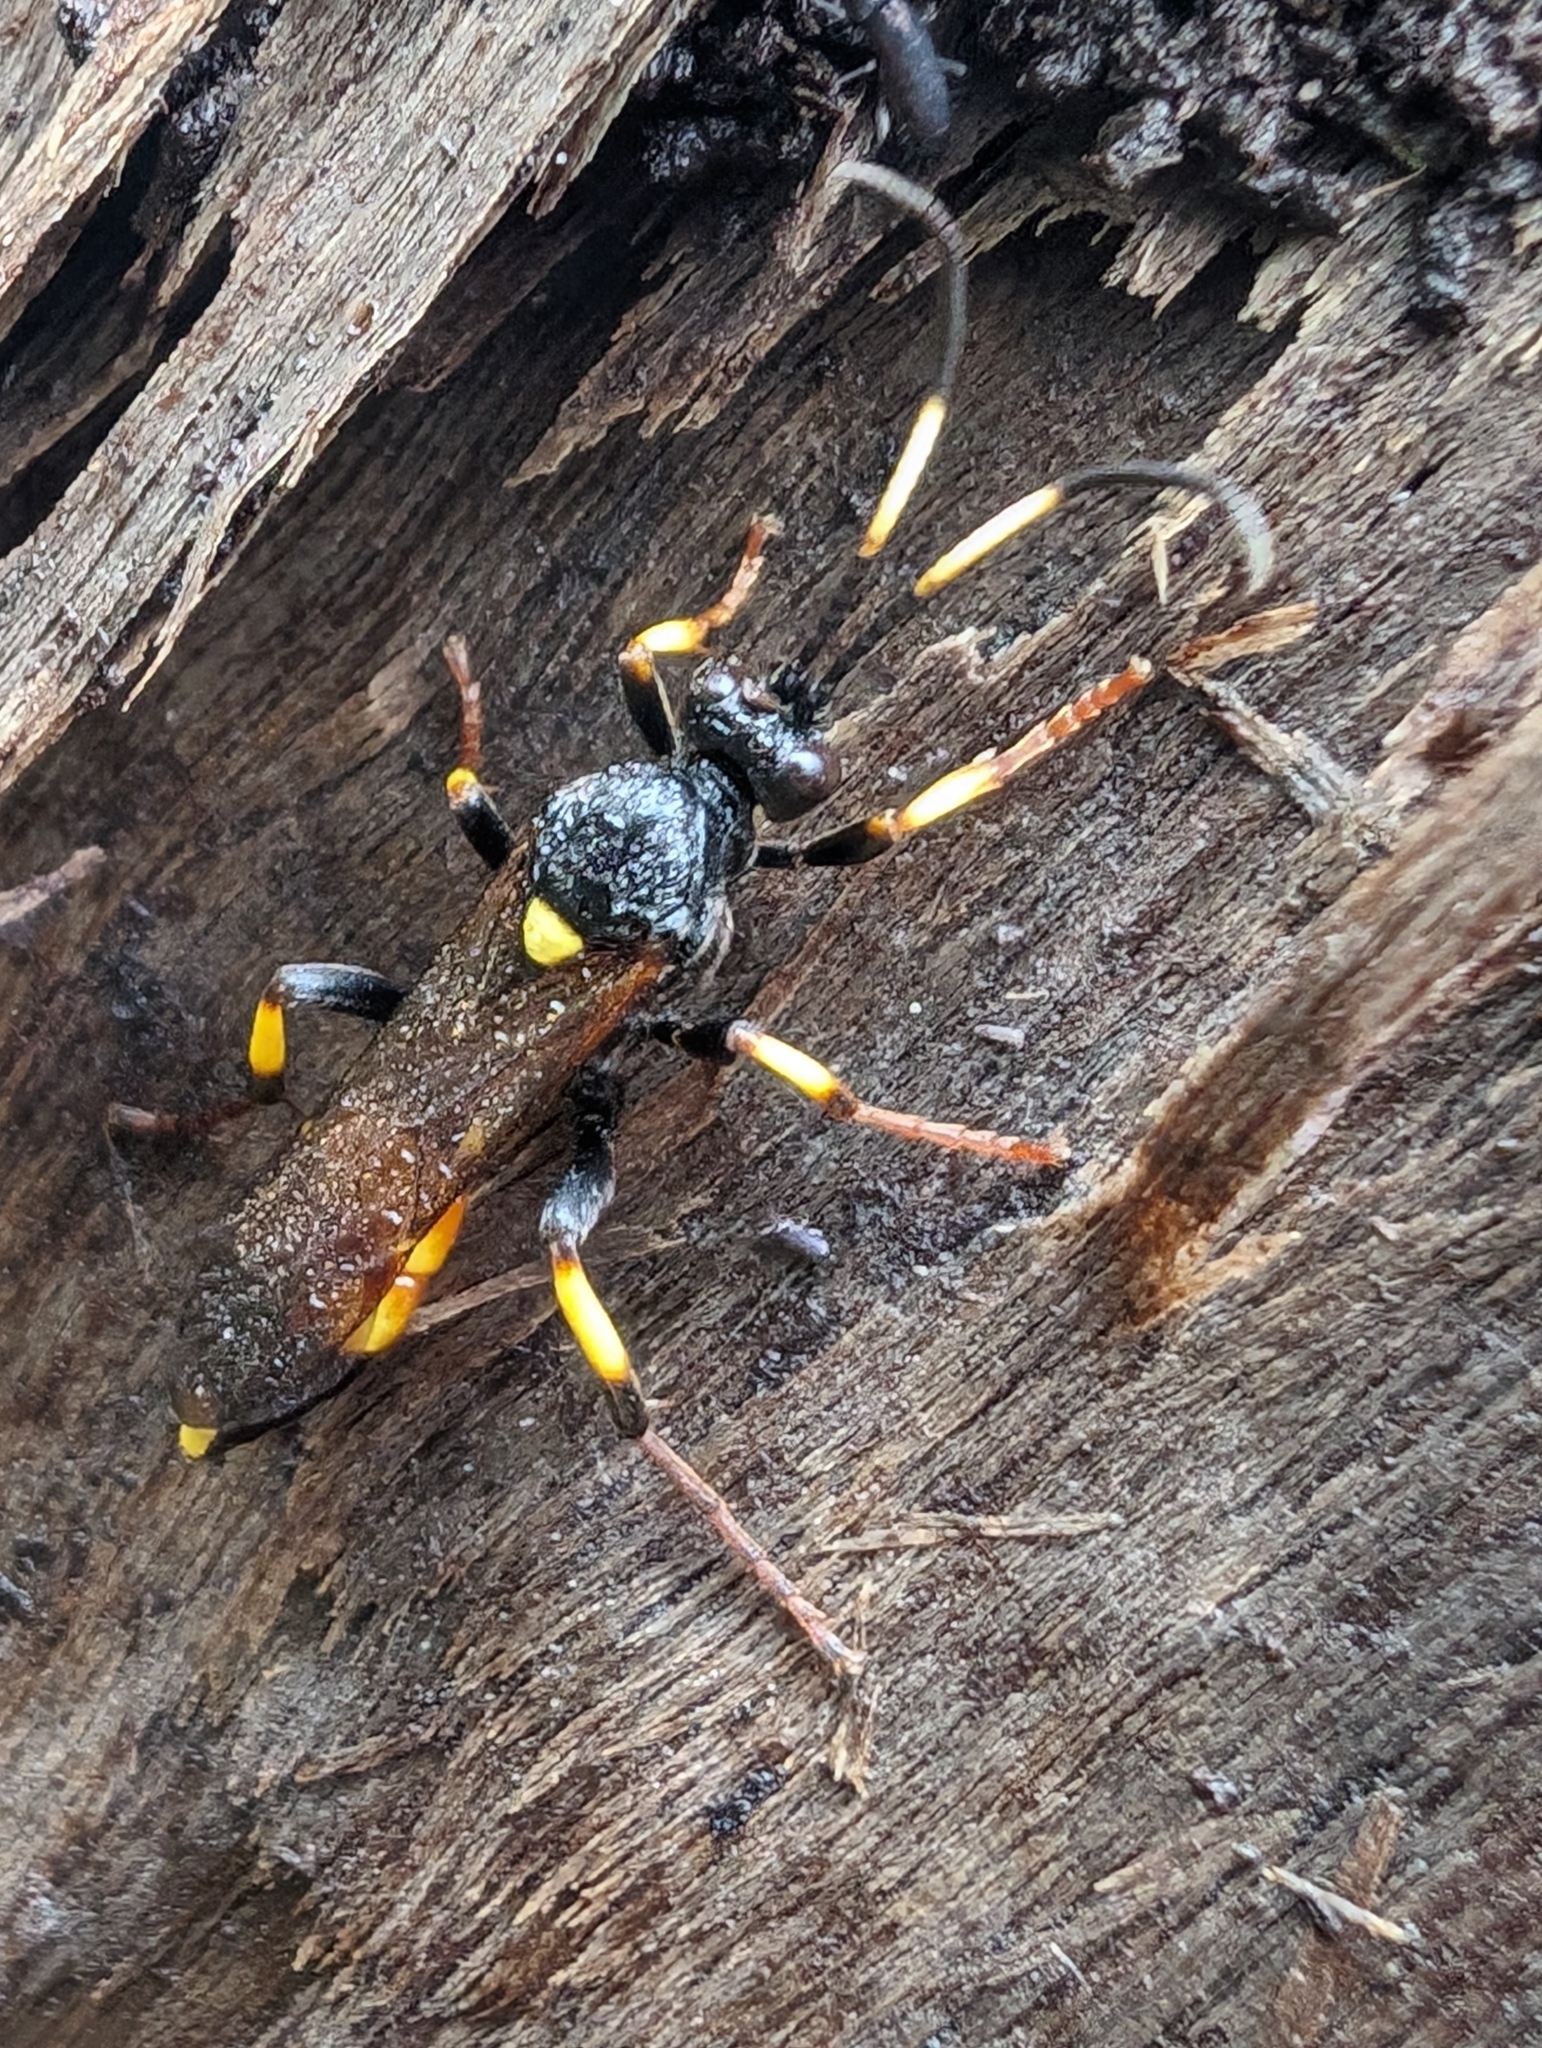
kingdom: Animalia
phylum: Arthropoda
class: Insecta
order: Hymenoptera
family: Ichneumonidae
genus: Ichneumon
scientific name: Ichneumon stramentor
